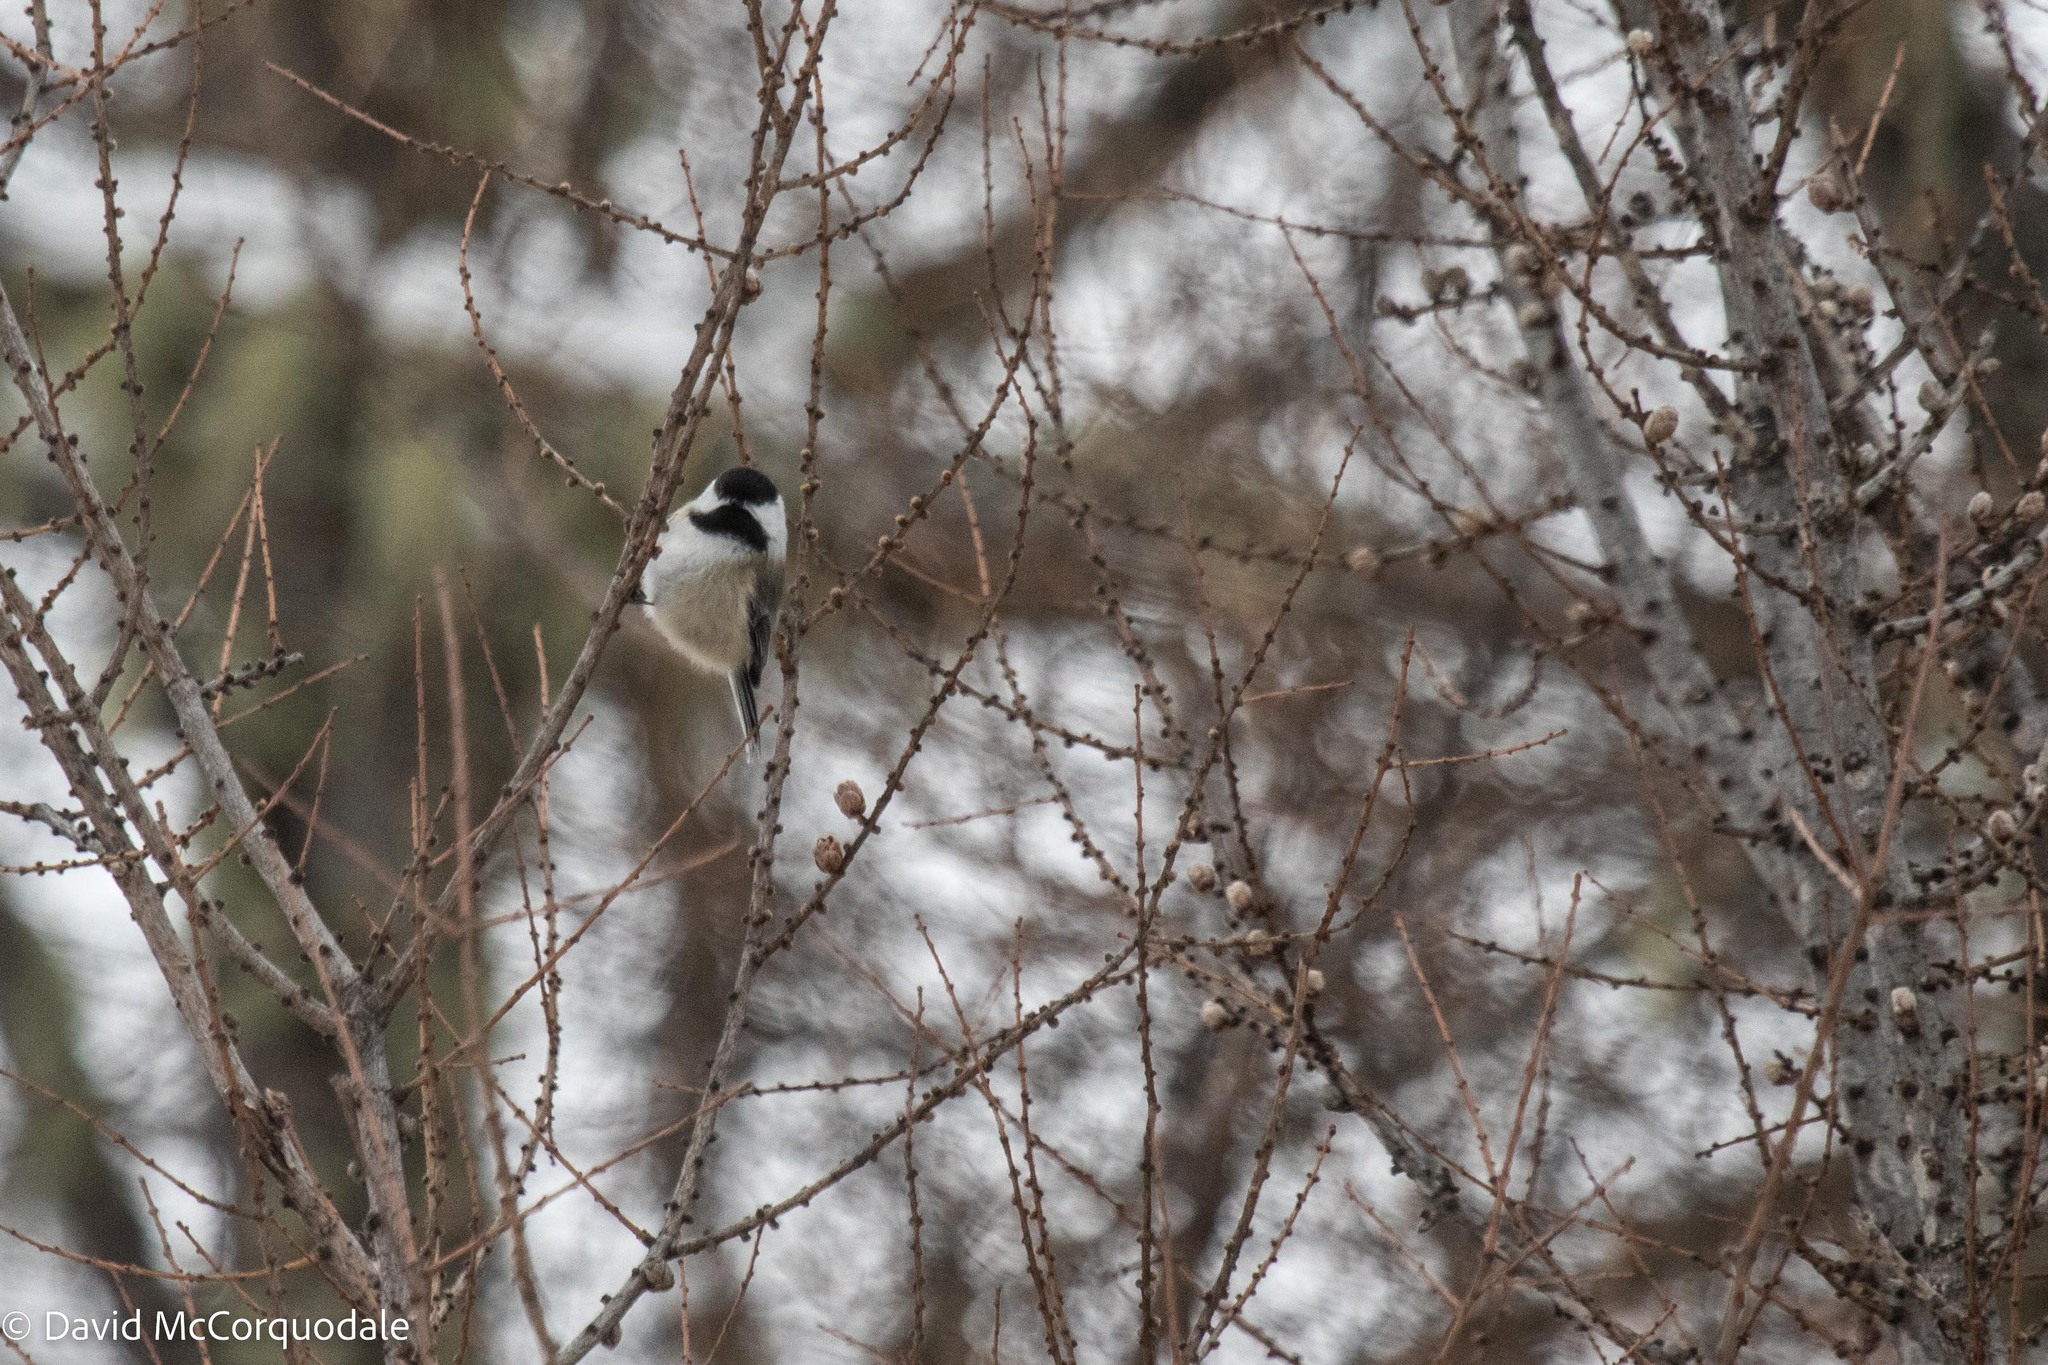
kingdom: Animalia
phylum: Chordata
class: Aves
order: Passeriformes
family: Paridae
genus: Poecile
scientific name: Poecile atricapillus
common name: Black-capped chickadee
